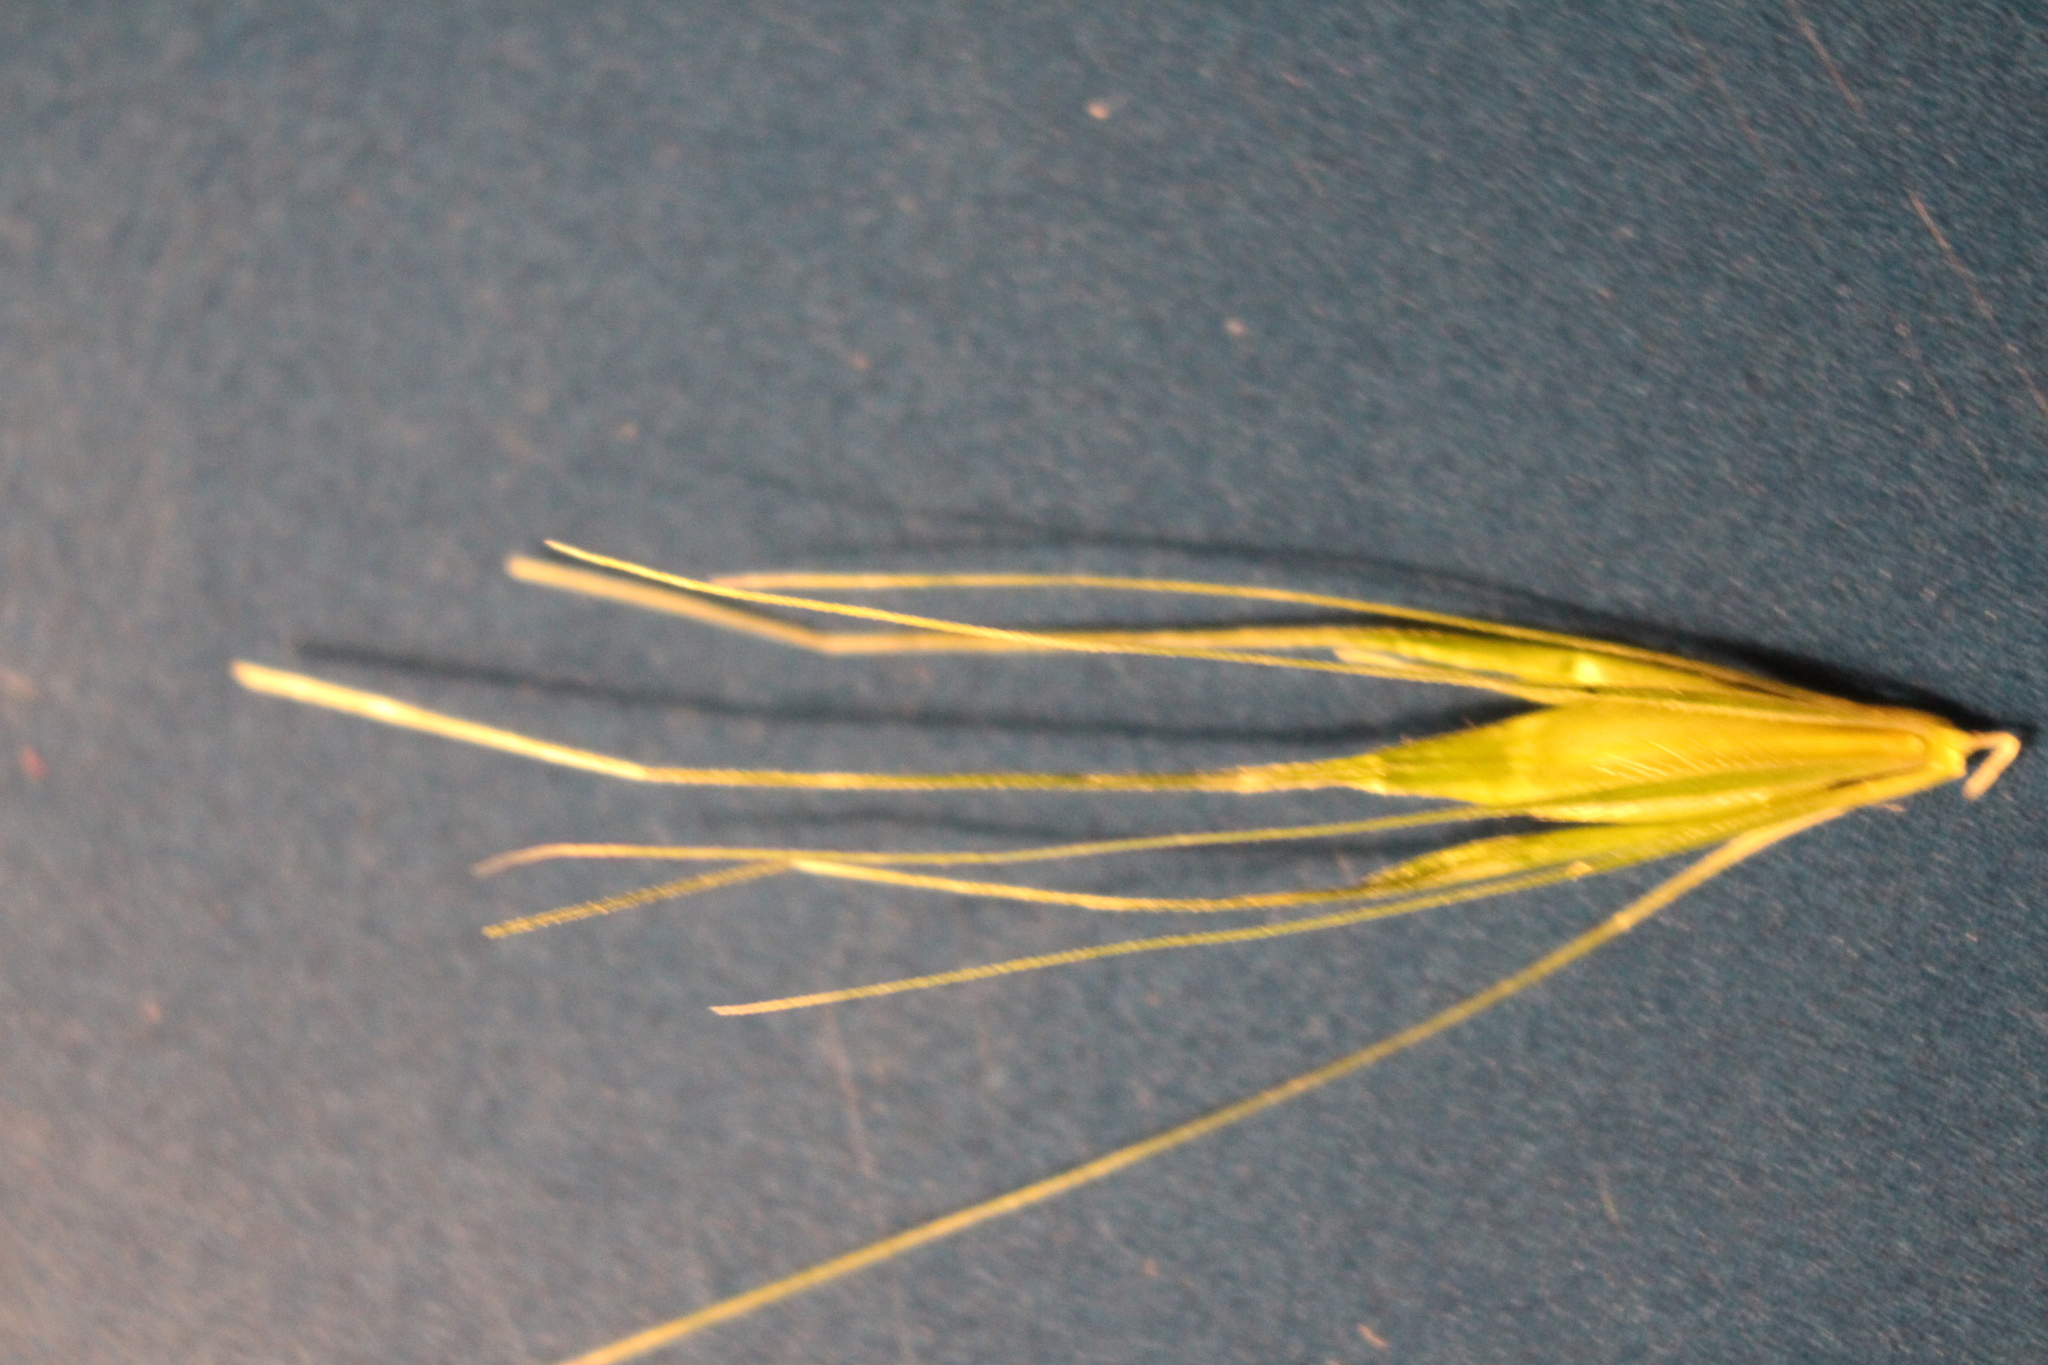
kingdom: Plantae
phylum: Tracheophyta
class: Liliopsida
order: Poales
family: Poaceae
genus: Hordeum
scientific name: Hordeum murinum
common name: Wall barley
